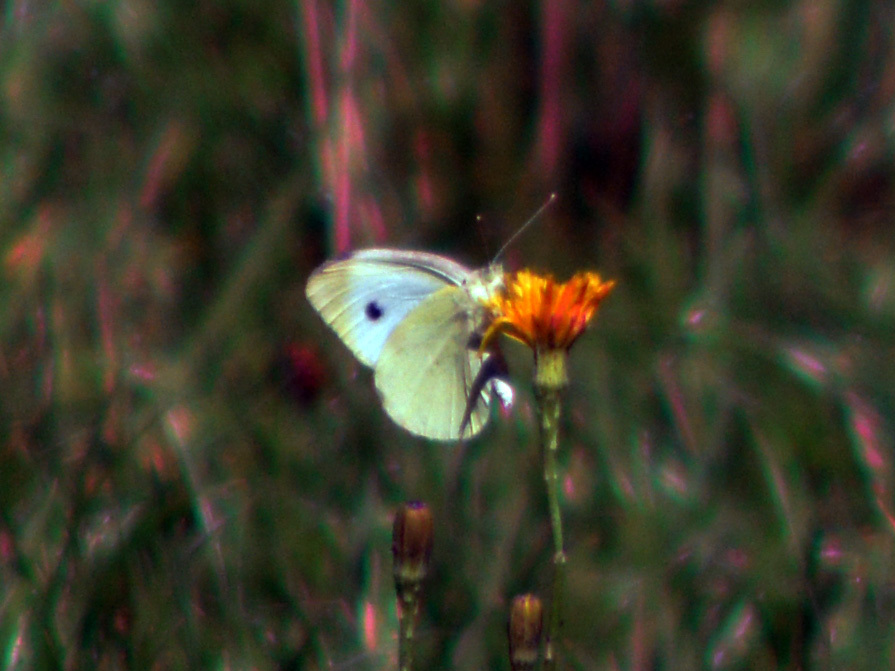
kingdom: Animalia
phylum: Arthropoda
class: Insecta
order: Lepidoptera
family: Pieridae
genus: Pieris
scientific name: Pieris rapae
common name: Small white
